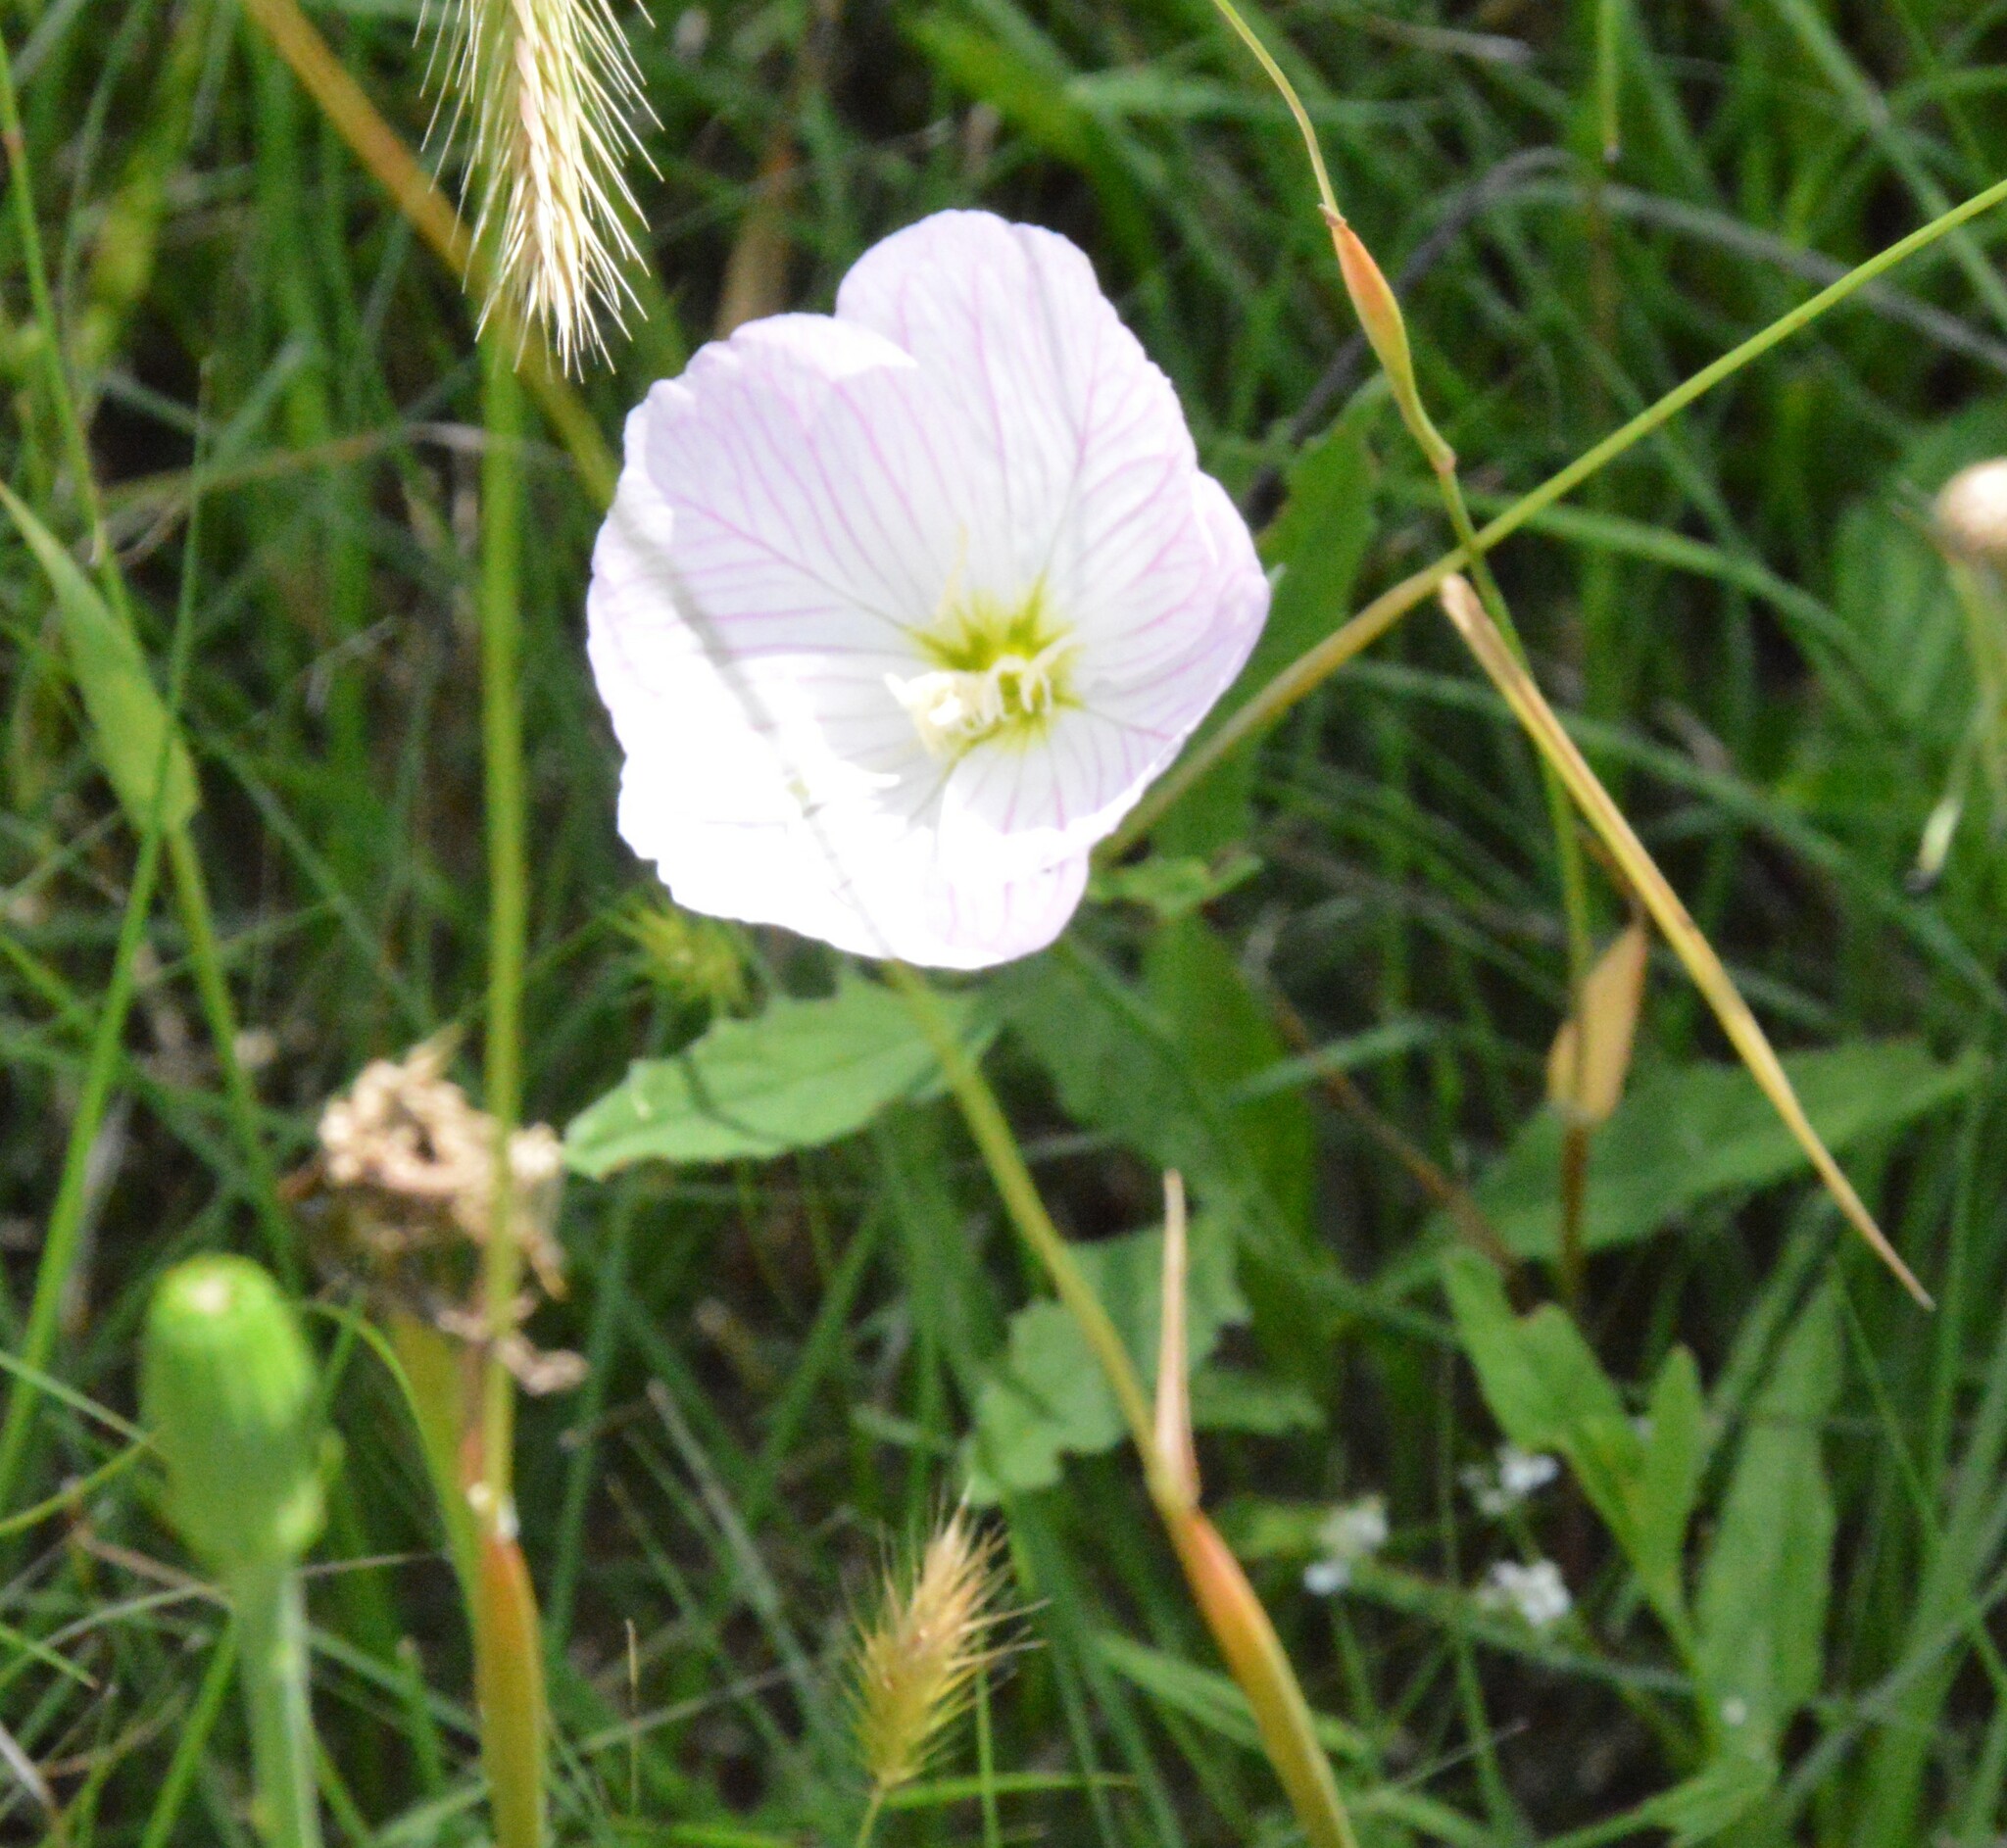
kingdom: Plantae
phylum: Tracheophyta
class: Magnoliopsida
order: Myrtales
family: Onagraceae
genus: Oenothera
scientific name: Oenothera speciosa
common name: White evening-primrose
